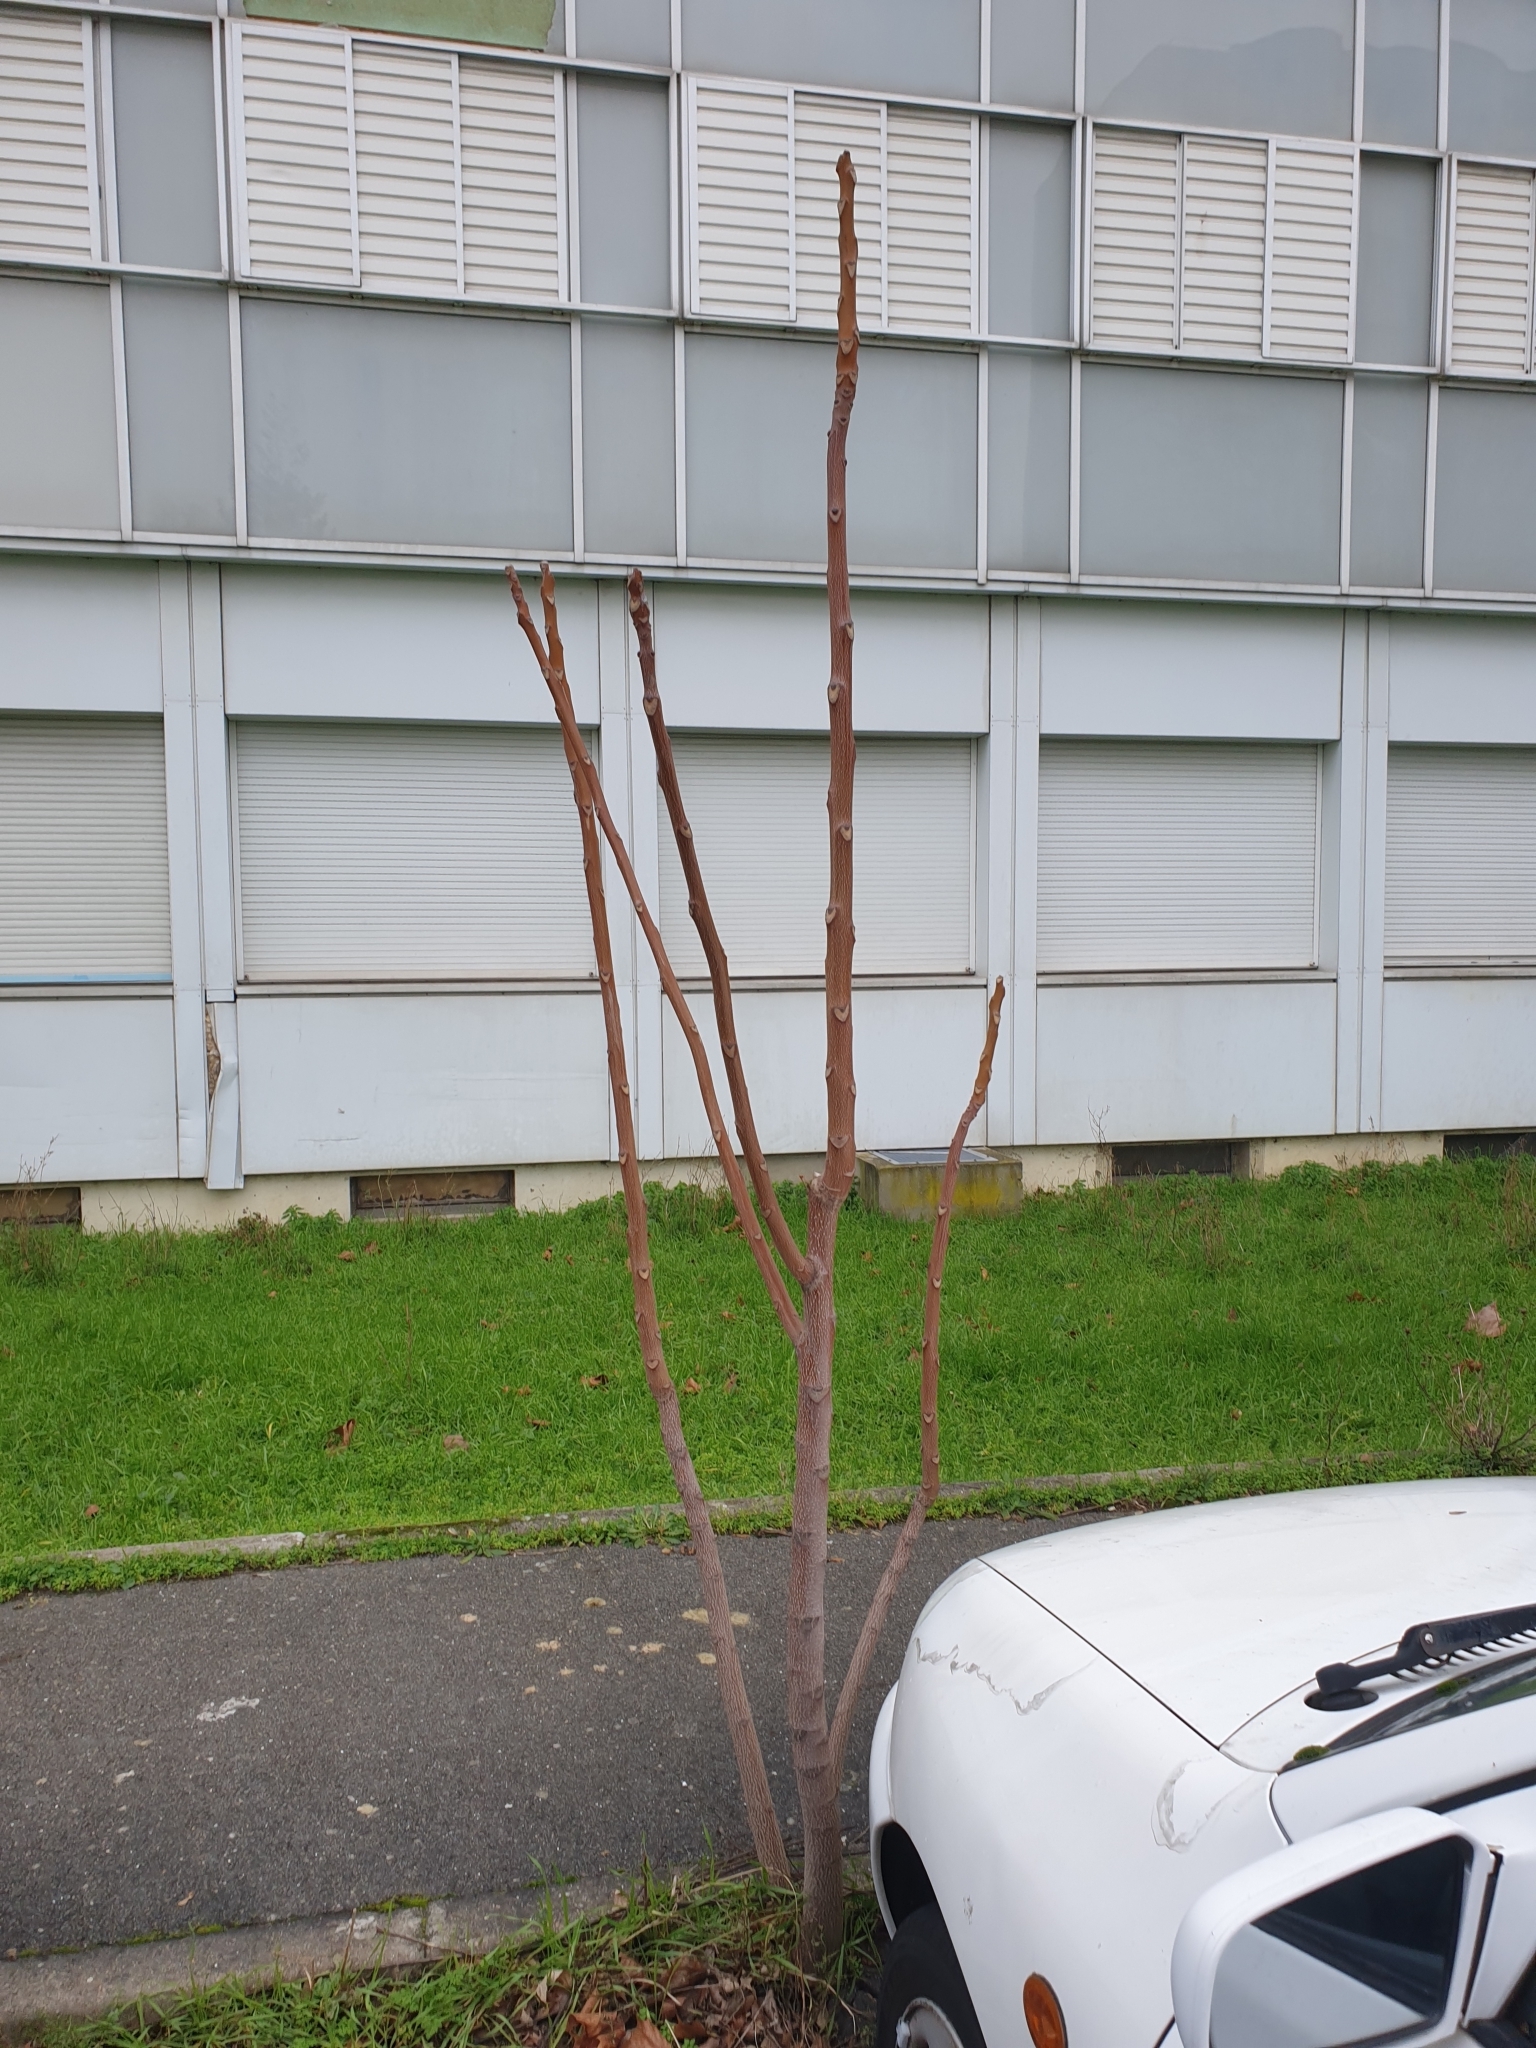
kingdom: Plantae
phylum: Tracheophyta
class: Magnoliopsida
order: Sapindales
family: Simaroubaceae
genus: Ailanthus
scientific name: Ailanthus altissima
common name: Tree-of-heaven
